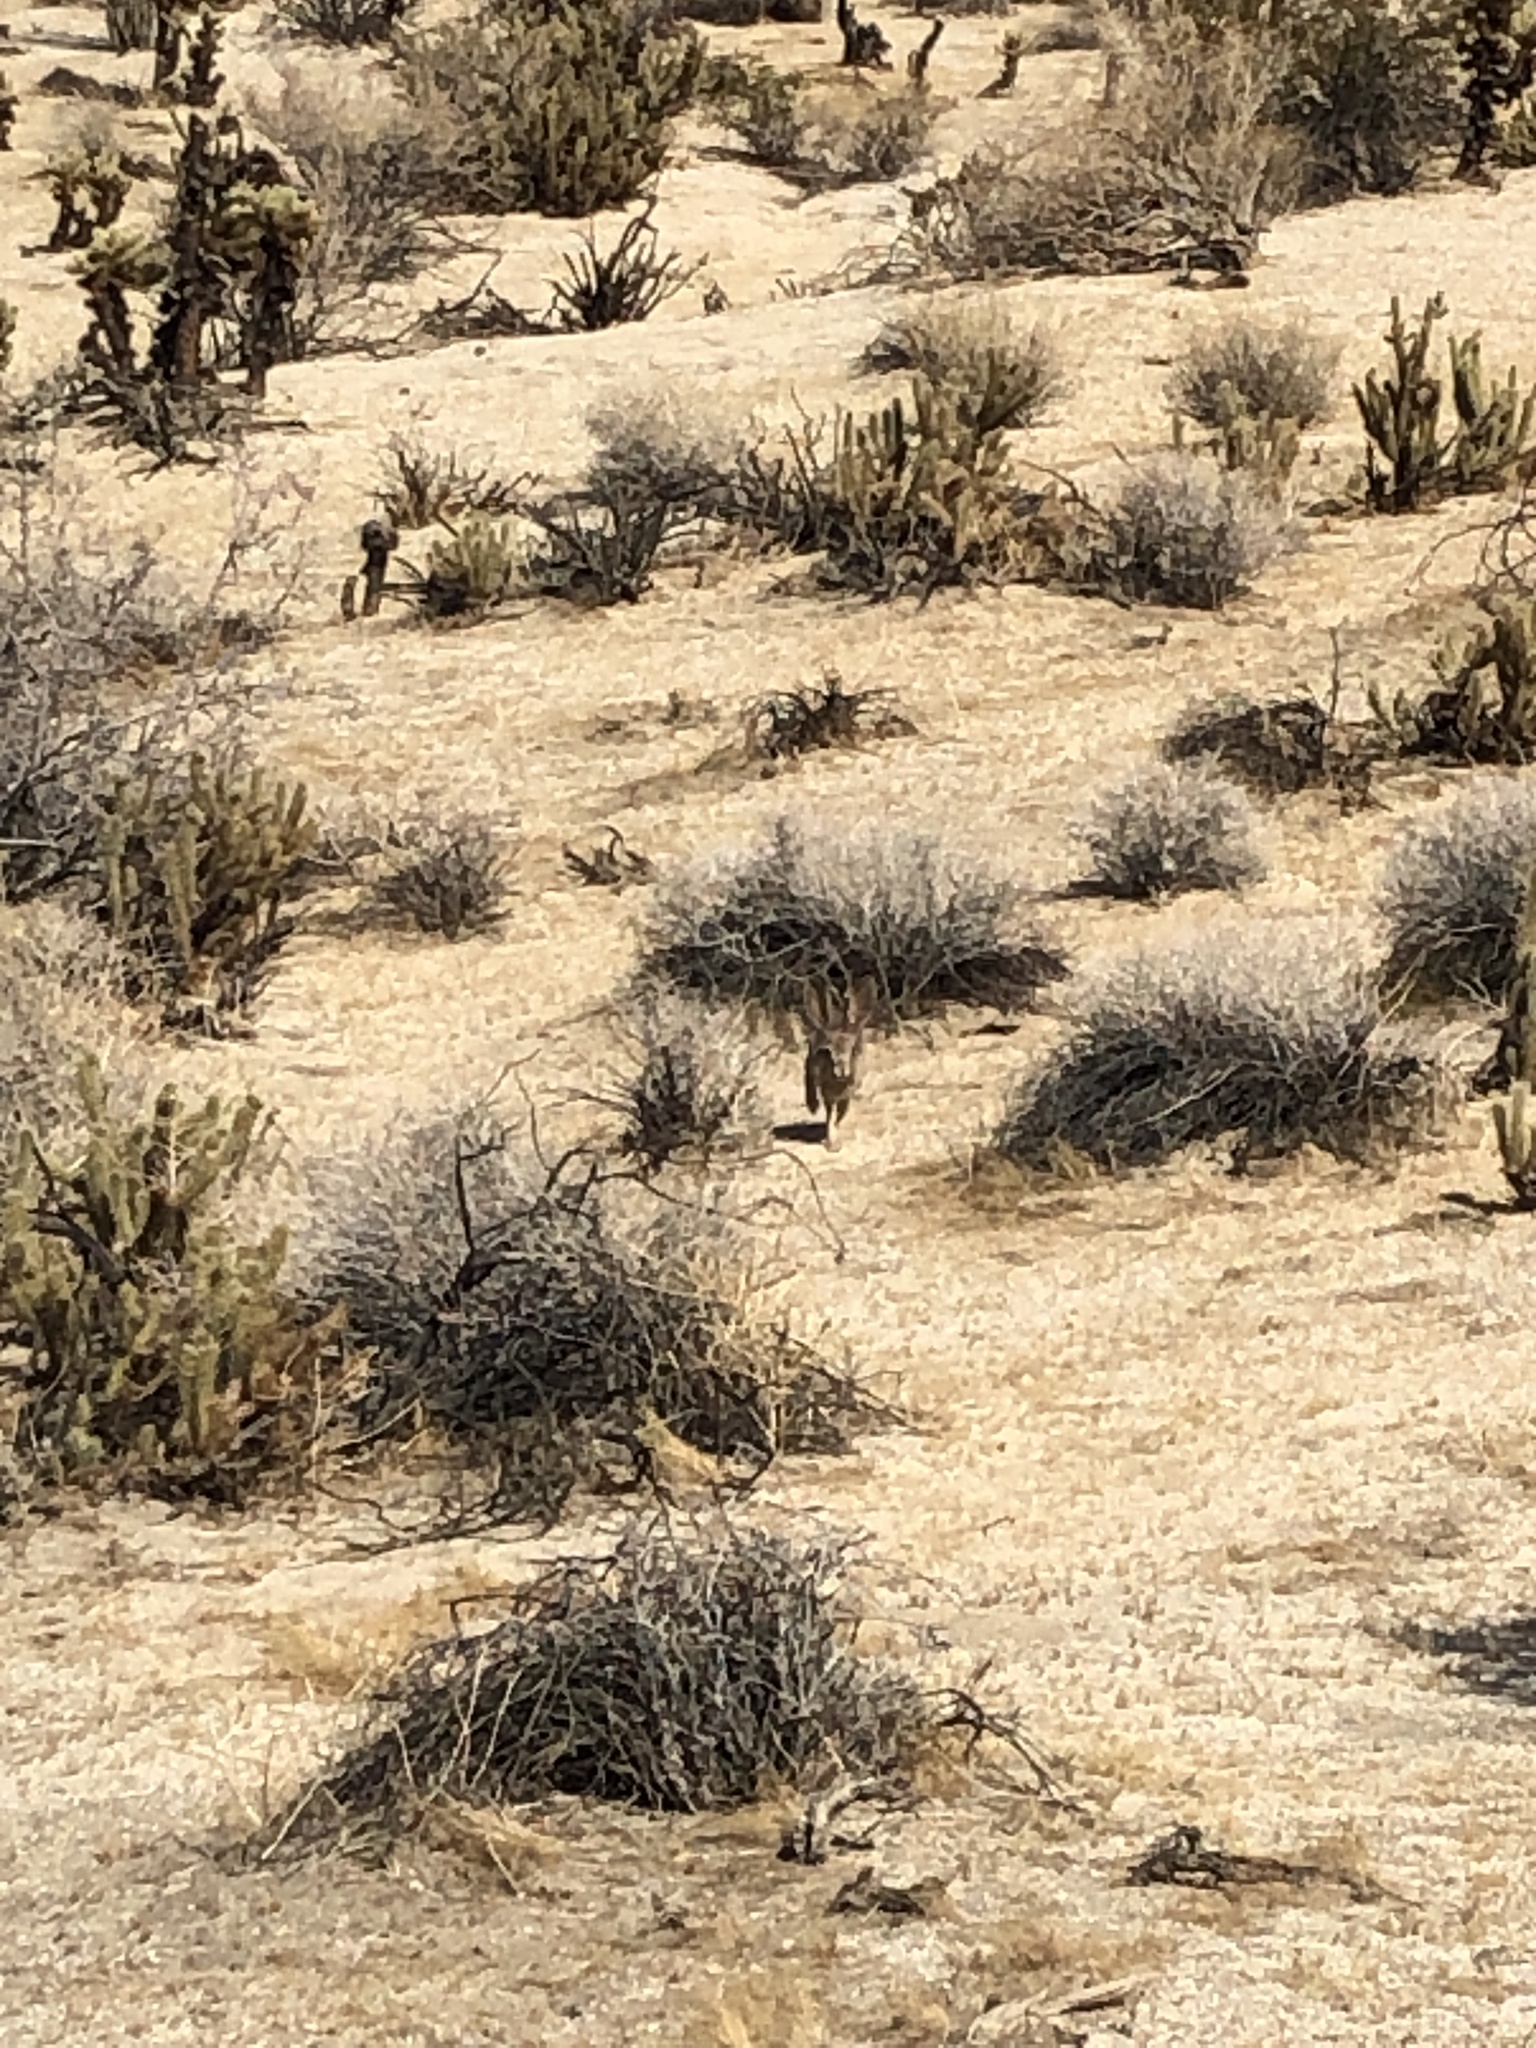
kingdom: Animalia
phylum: Chordata
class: Mammalia
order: Lagomorpha
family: Leporidae
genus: Lepus
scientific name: Lepus californicus
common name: Black-tailed jackrabbit
